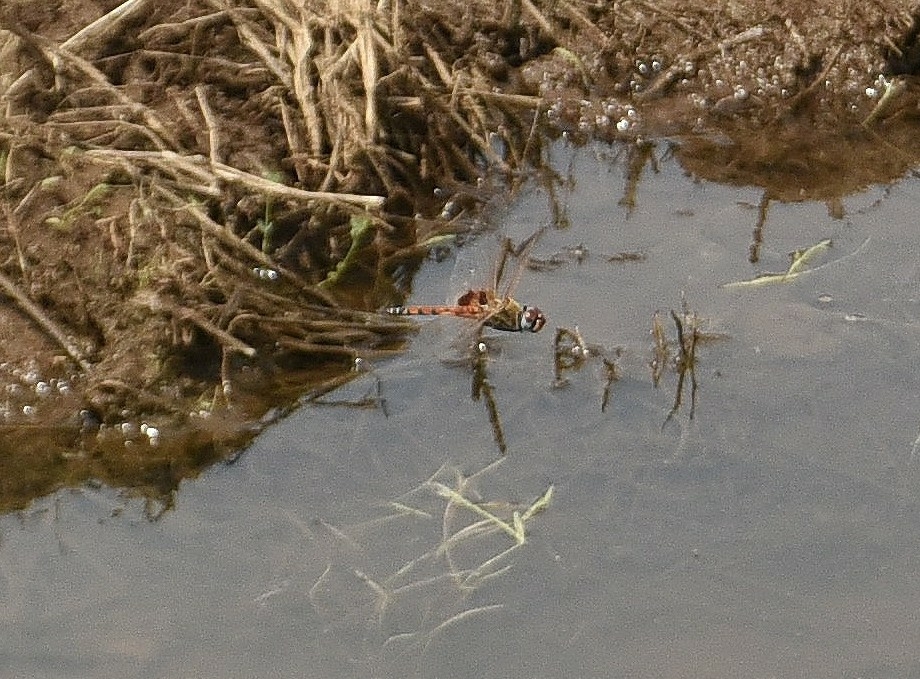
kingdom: Animalia
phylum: Arthropoda
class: Insecta
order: Odonata
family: Libellulidae
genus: Tramea
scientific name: Tramea basilaris
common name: Keyhole glider
